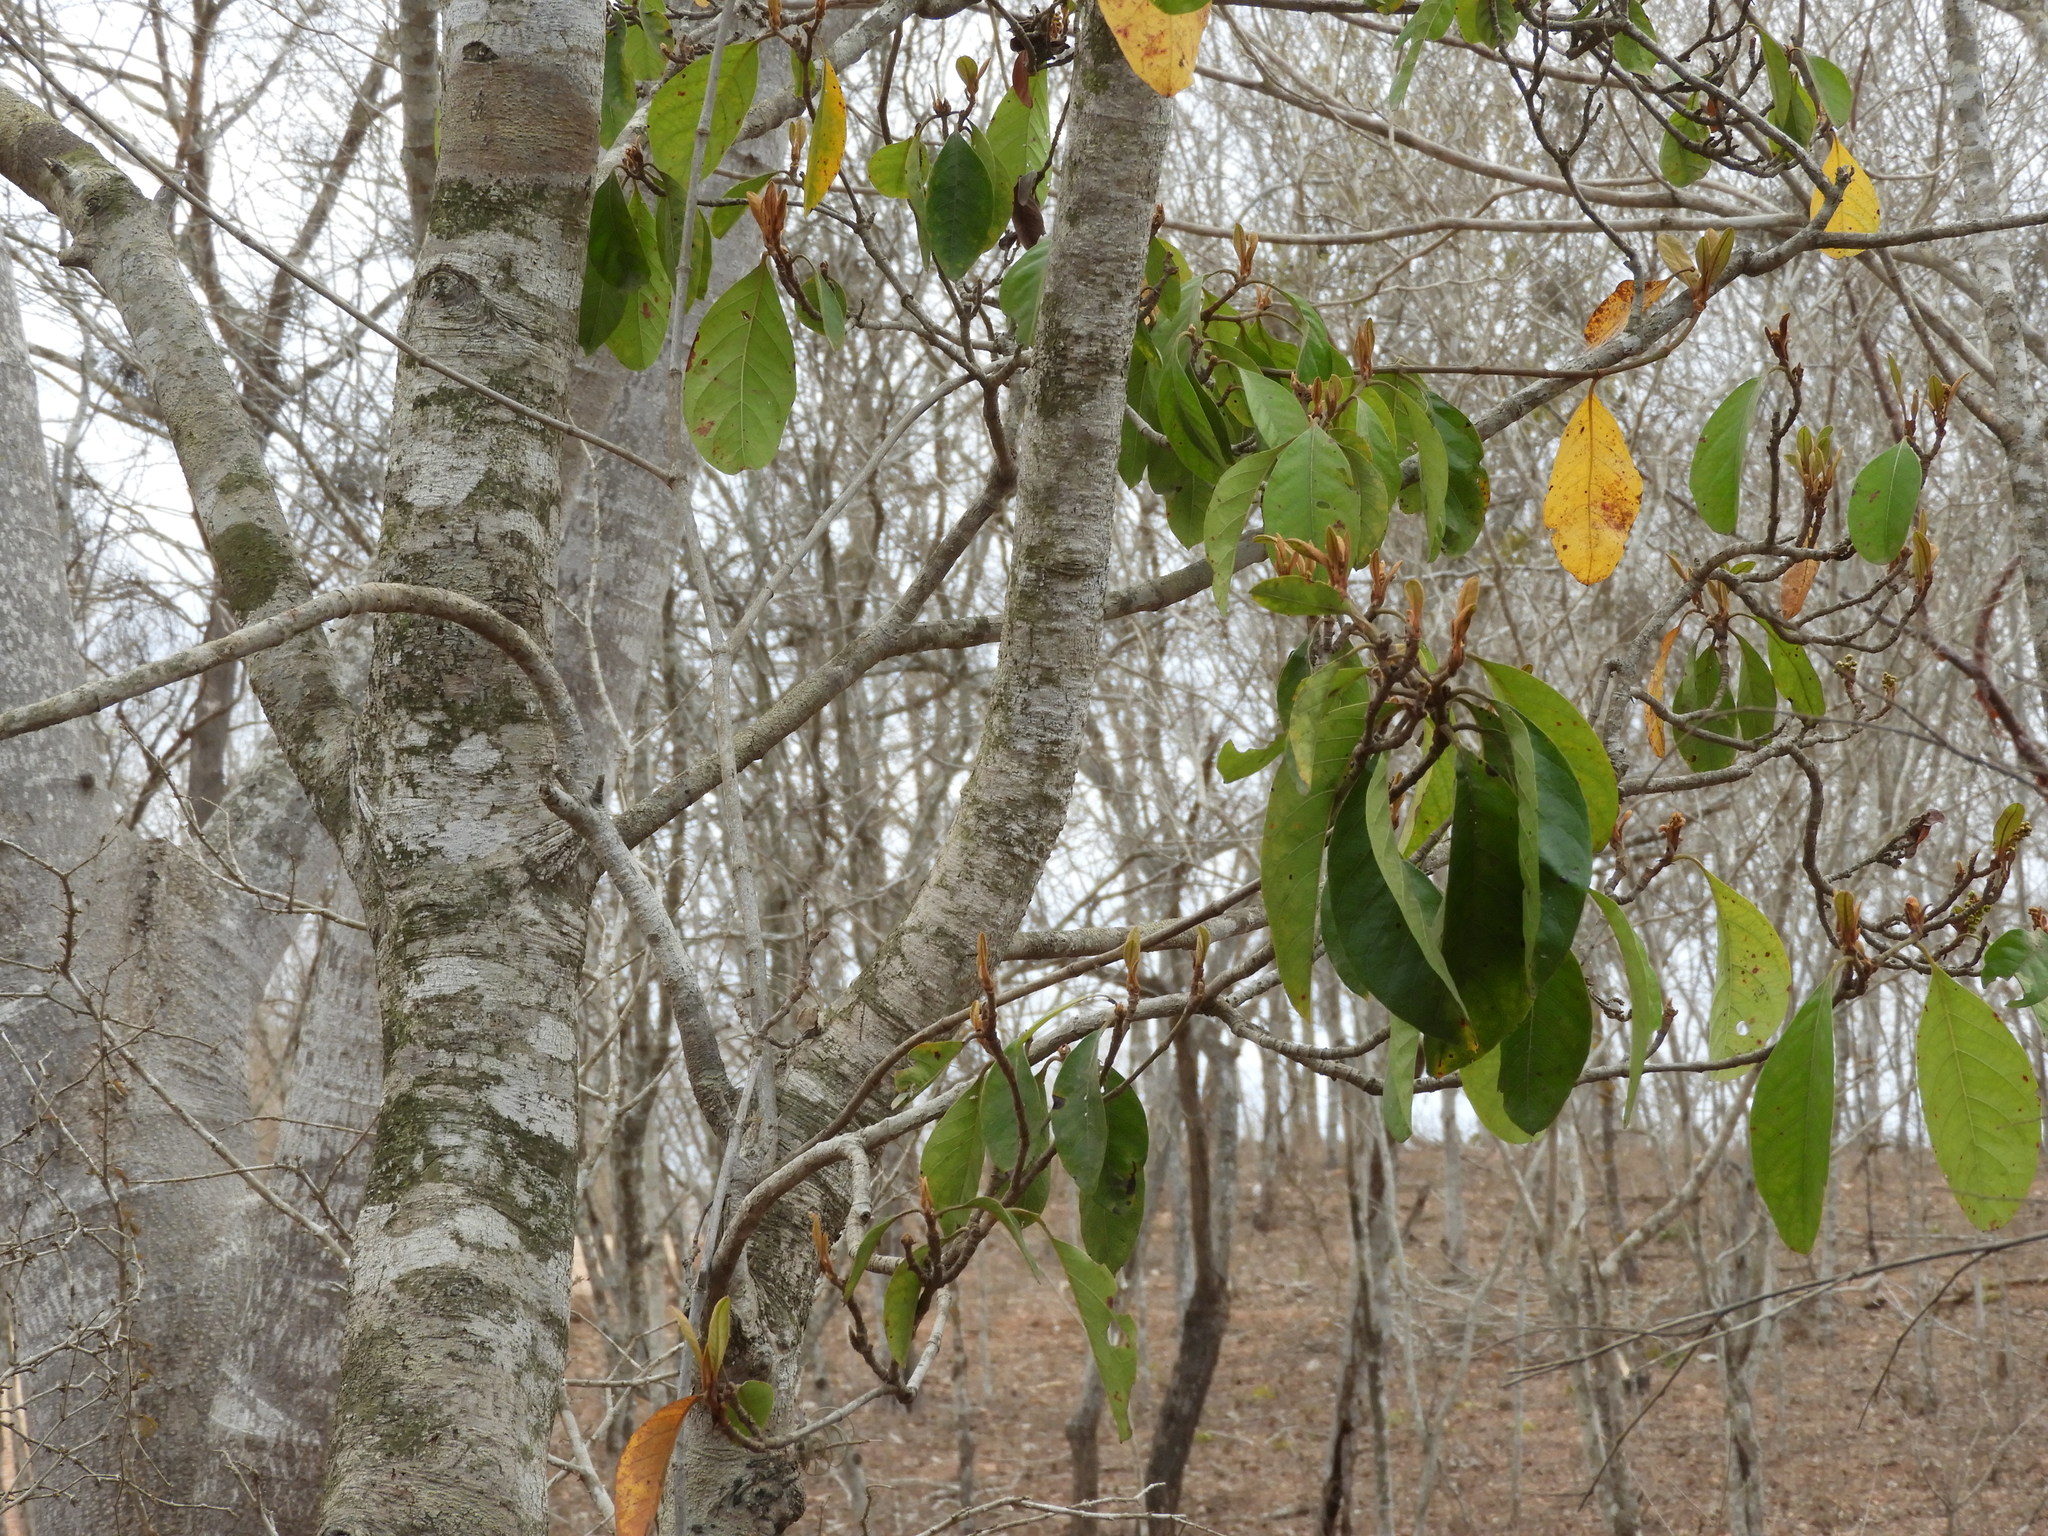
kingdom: Plantae
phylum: Tracheophyta
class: Magnoliopsida
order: Malpighiales
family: Malpighiaceae
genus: Byrsonima
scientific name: Byrsonima crassifolia
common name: Golden spoon
